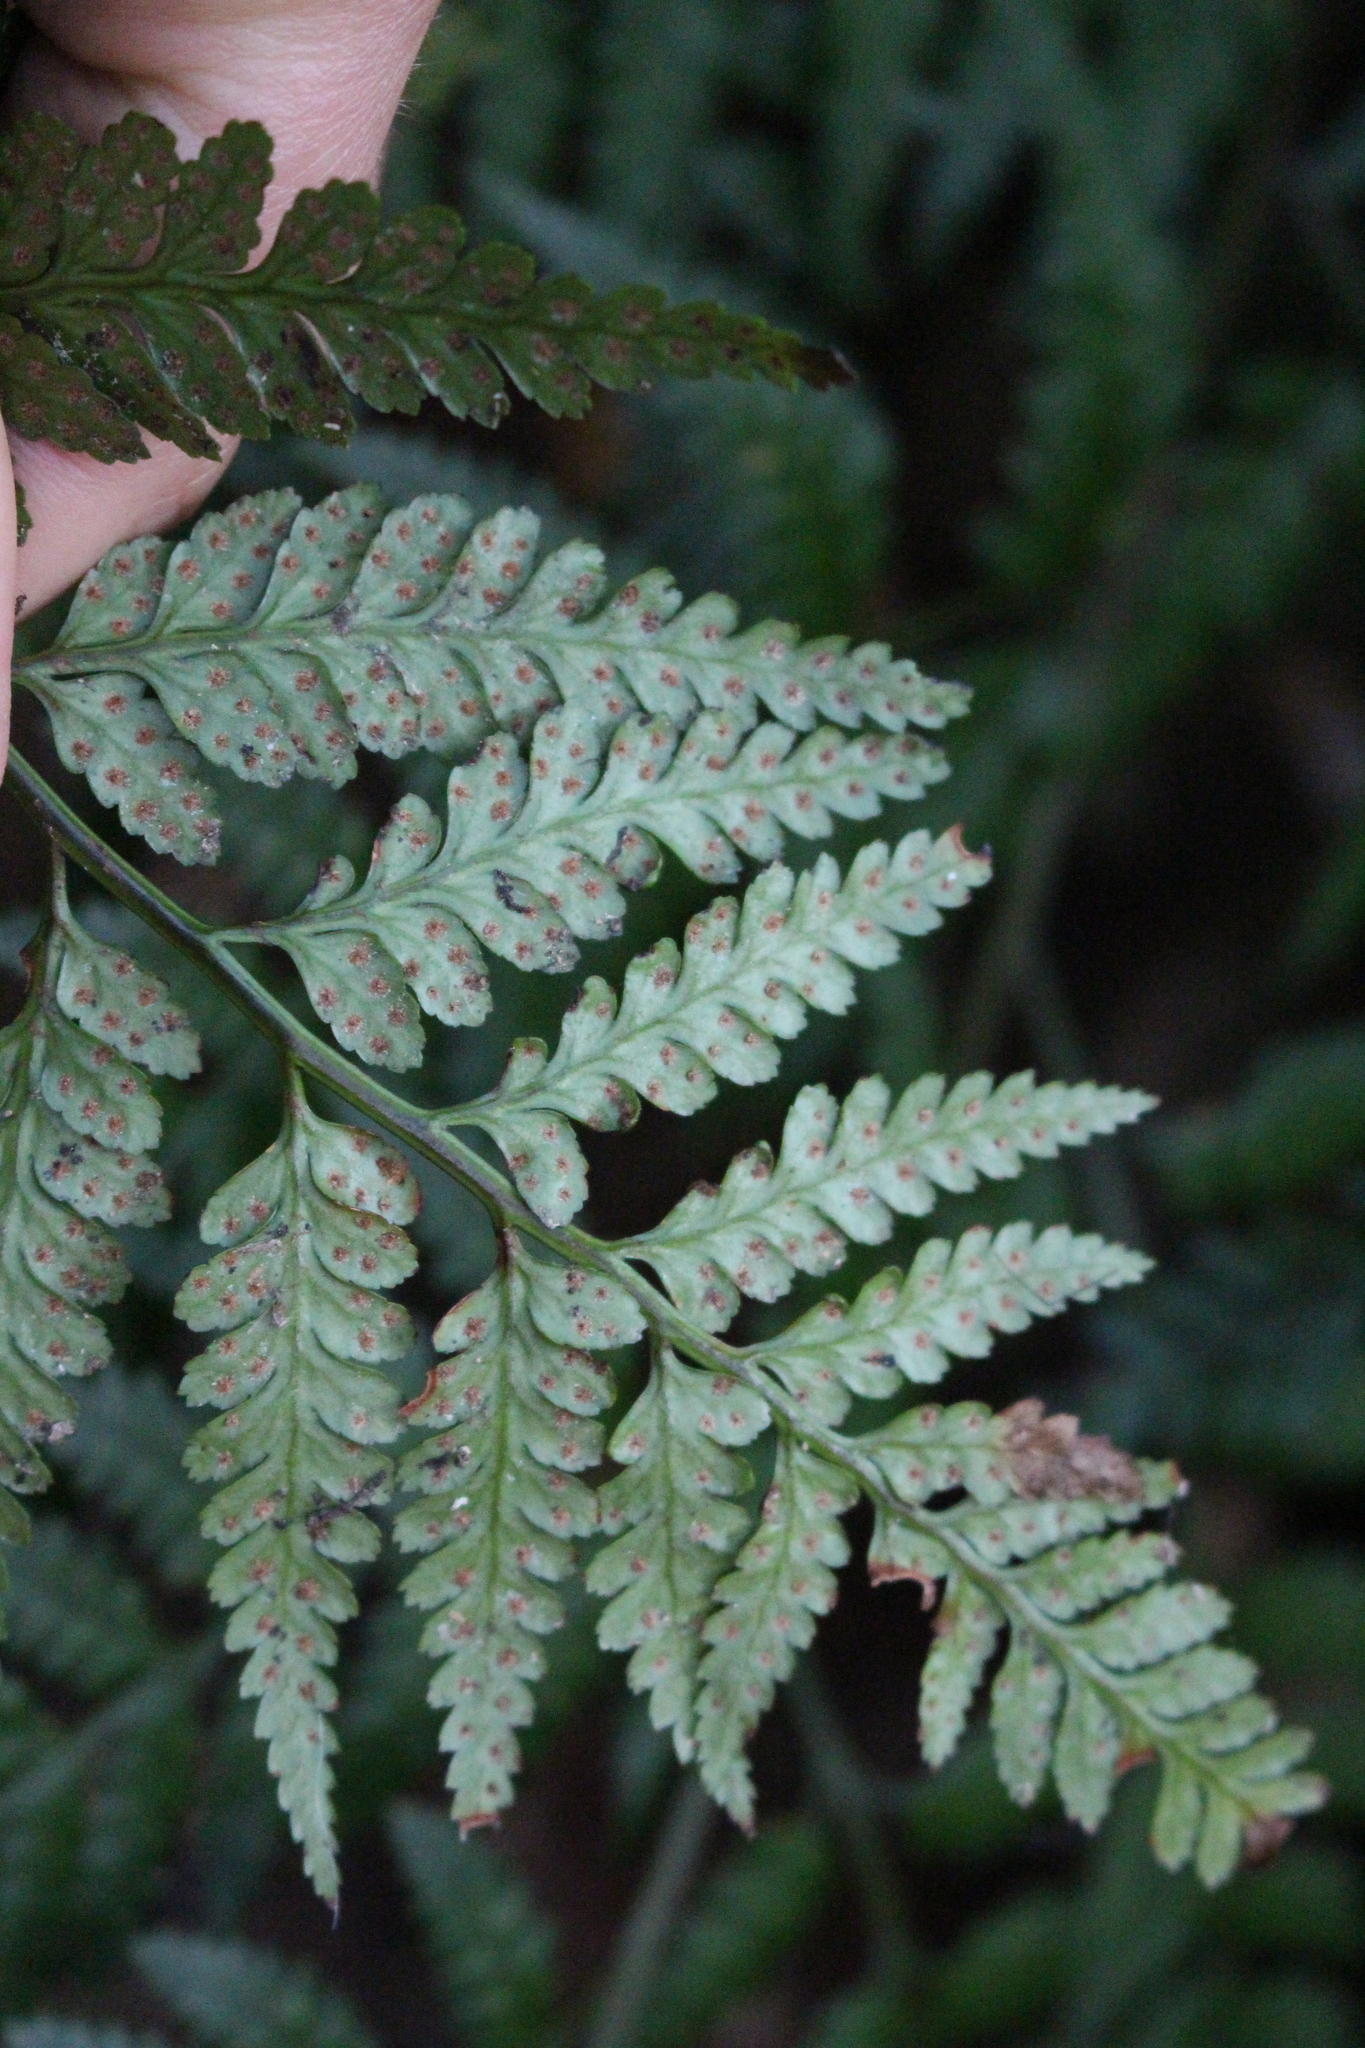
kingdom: Plantae
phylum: Tracheophyta
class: Polypodiopsida
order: Polypodiales
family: Dryopteridaceae
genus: Rumohra
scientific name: Rumohra adiantiformis
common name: Leather fern
